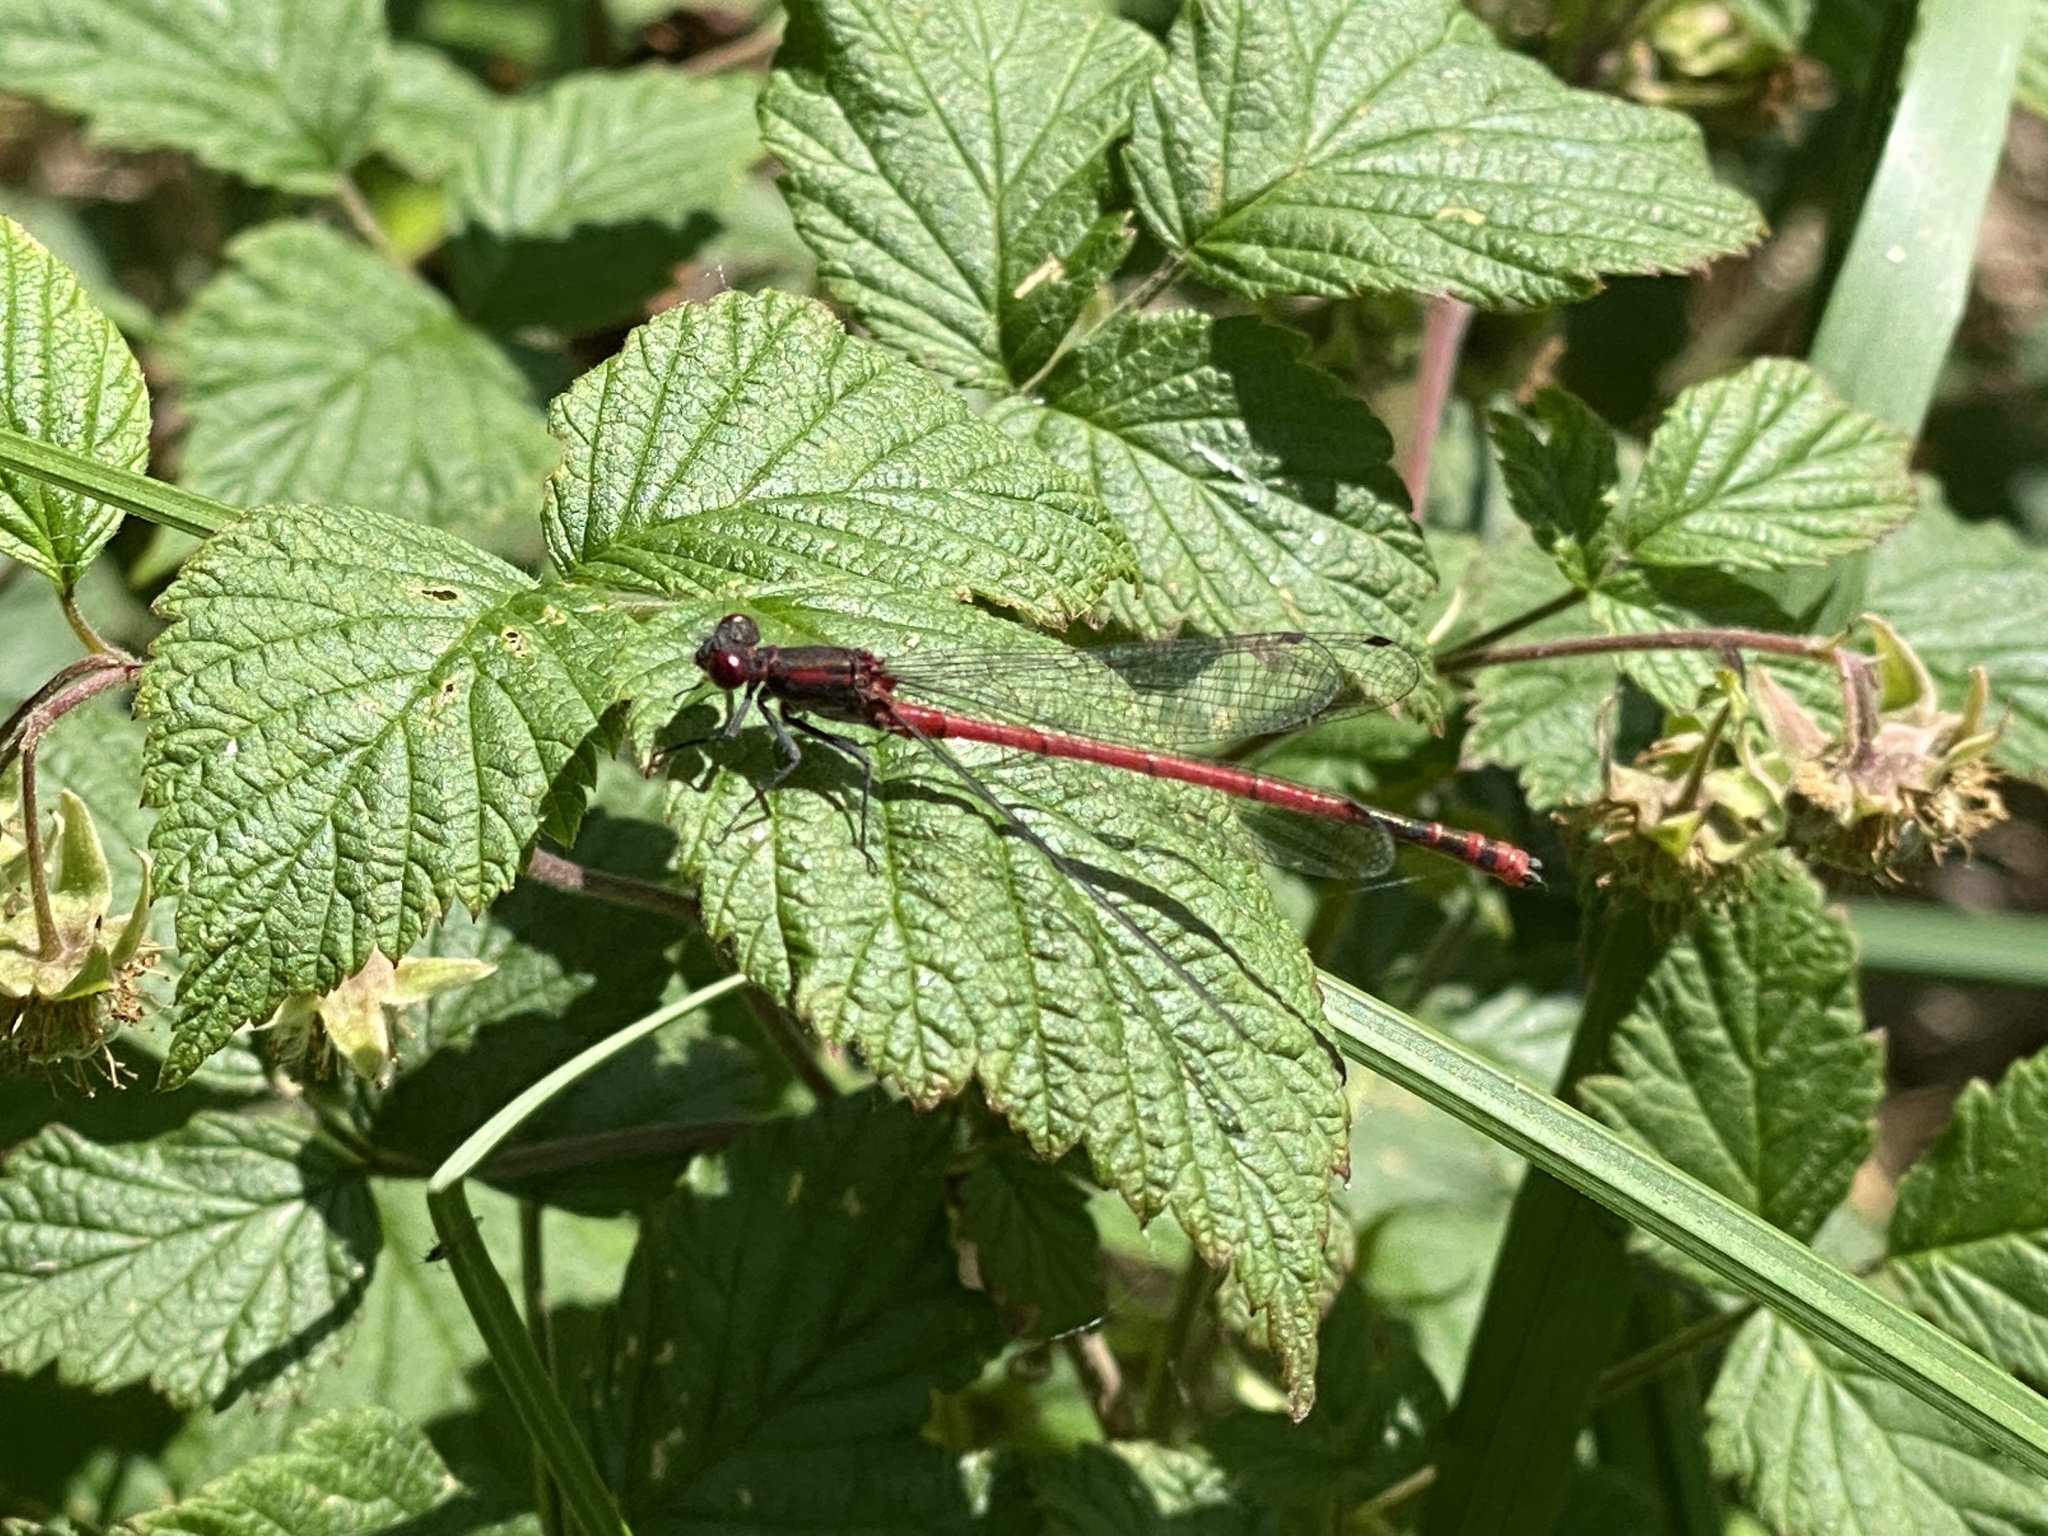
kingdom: Animalia
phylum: Arthropoda
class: Insecta
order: Odonata
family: Coenagrionidae
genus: Pyrrhosoma
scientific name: Pyrrhosoma nymphula
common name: Large red damsel
